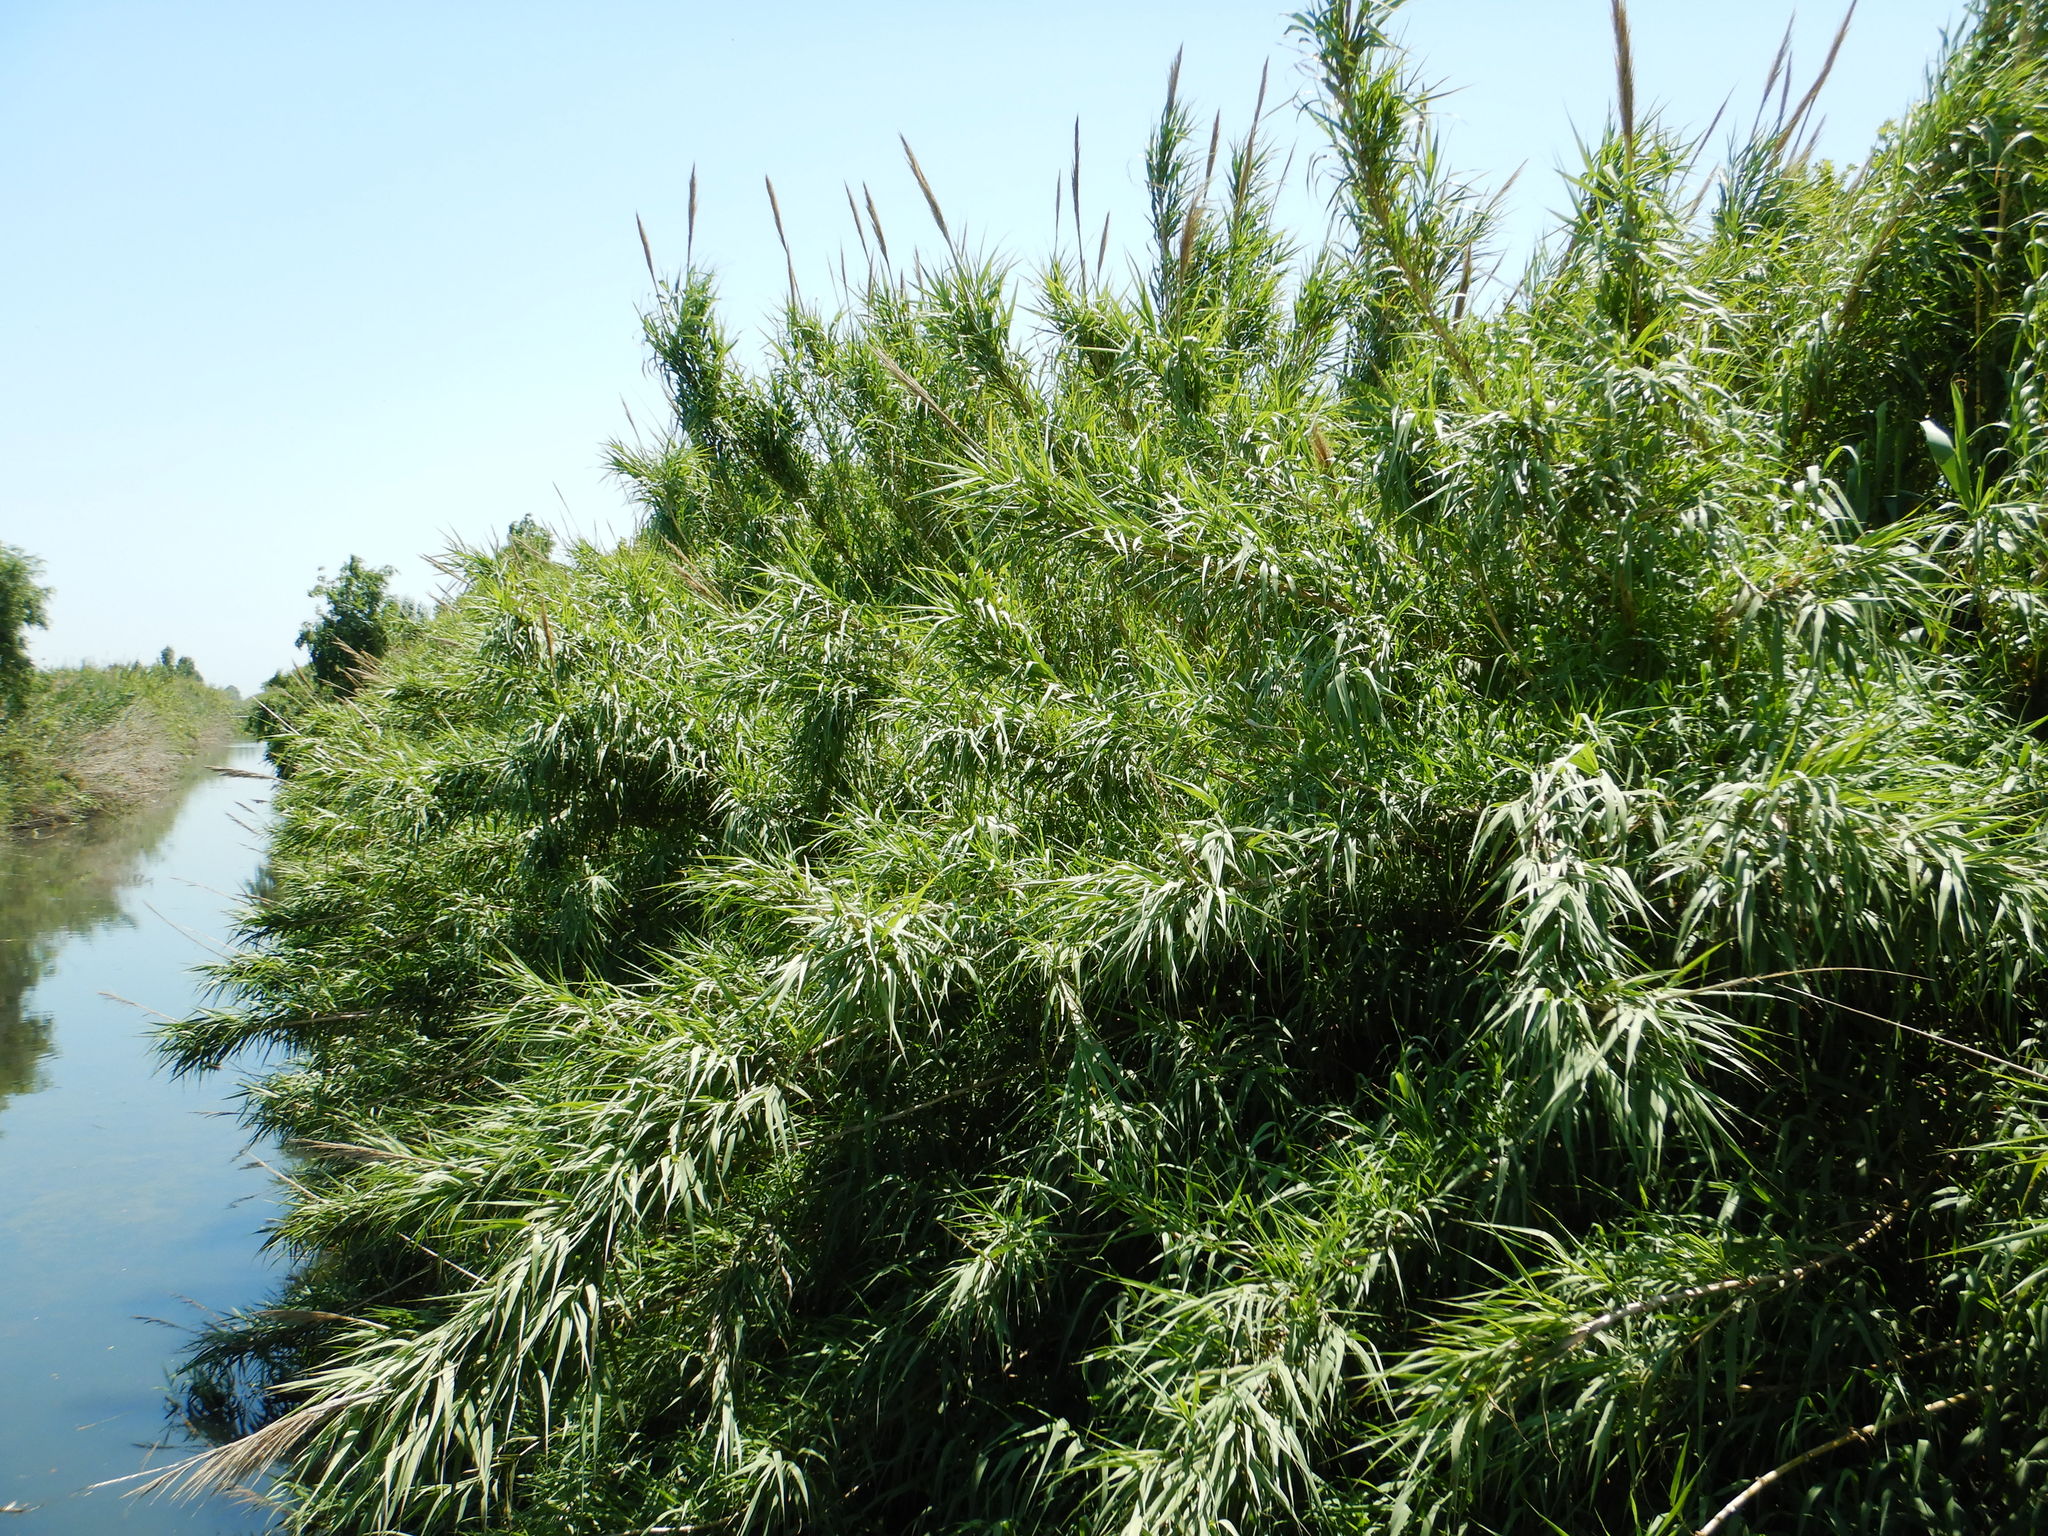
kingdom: Plantae
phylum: Tracheophyta
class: Liliopsida
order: Poales
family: Poaceae
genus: Arundo
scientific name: Arundo donax
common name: Giant reed
